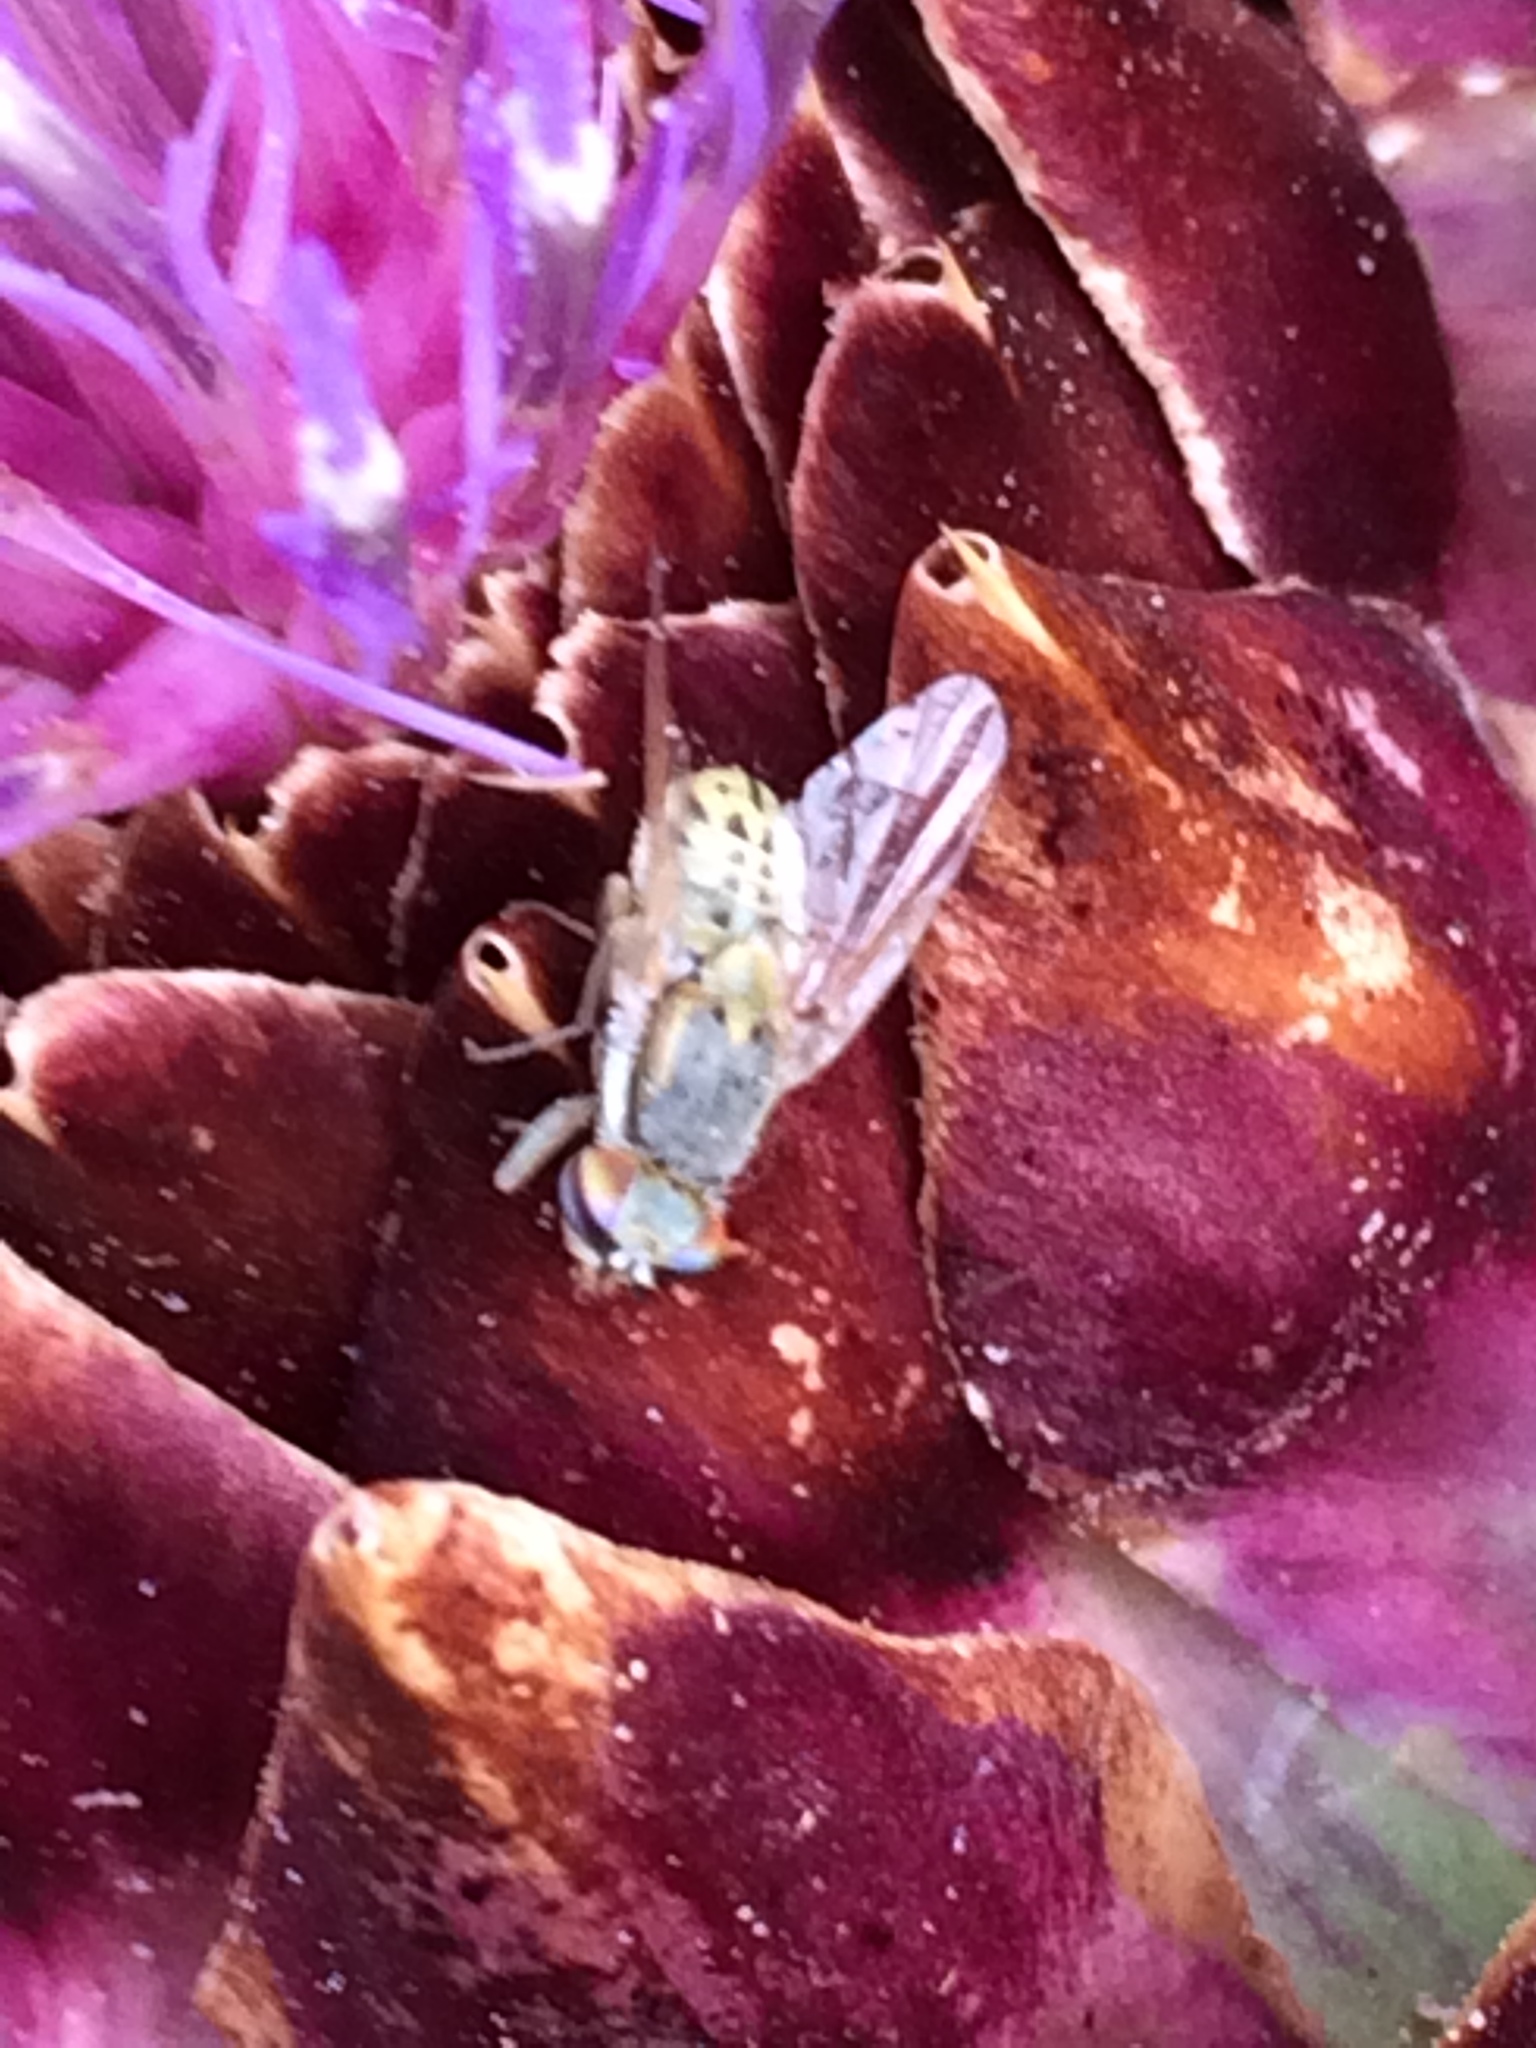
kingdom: Animalia
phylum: Arthropoda
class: Insecta
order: Diptera
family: Tephritidae
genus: Terellia
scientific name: Terellia fuscicornis
